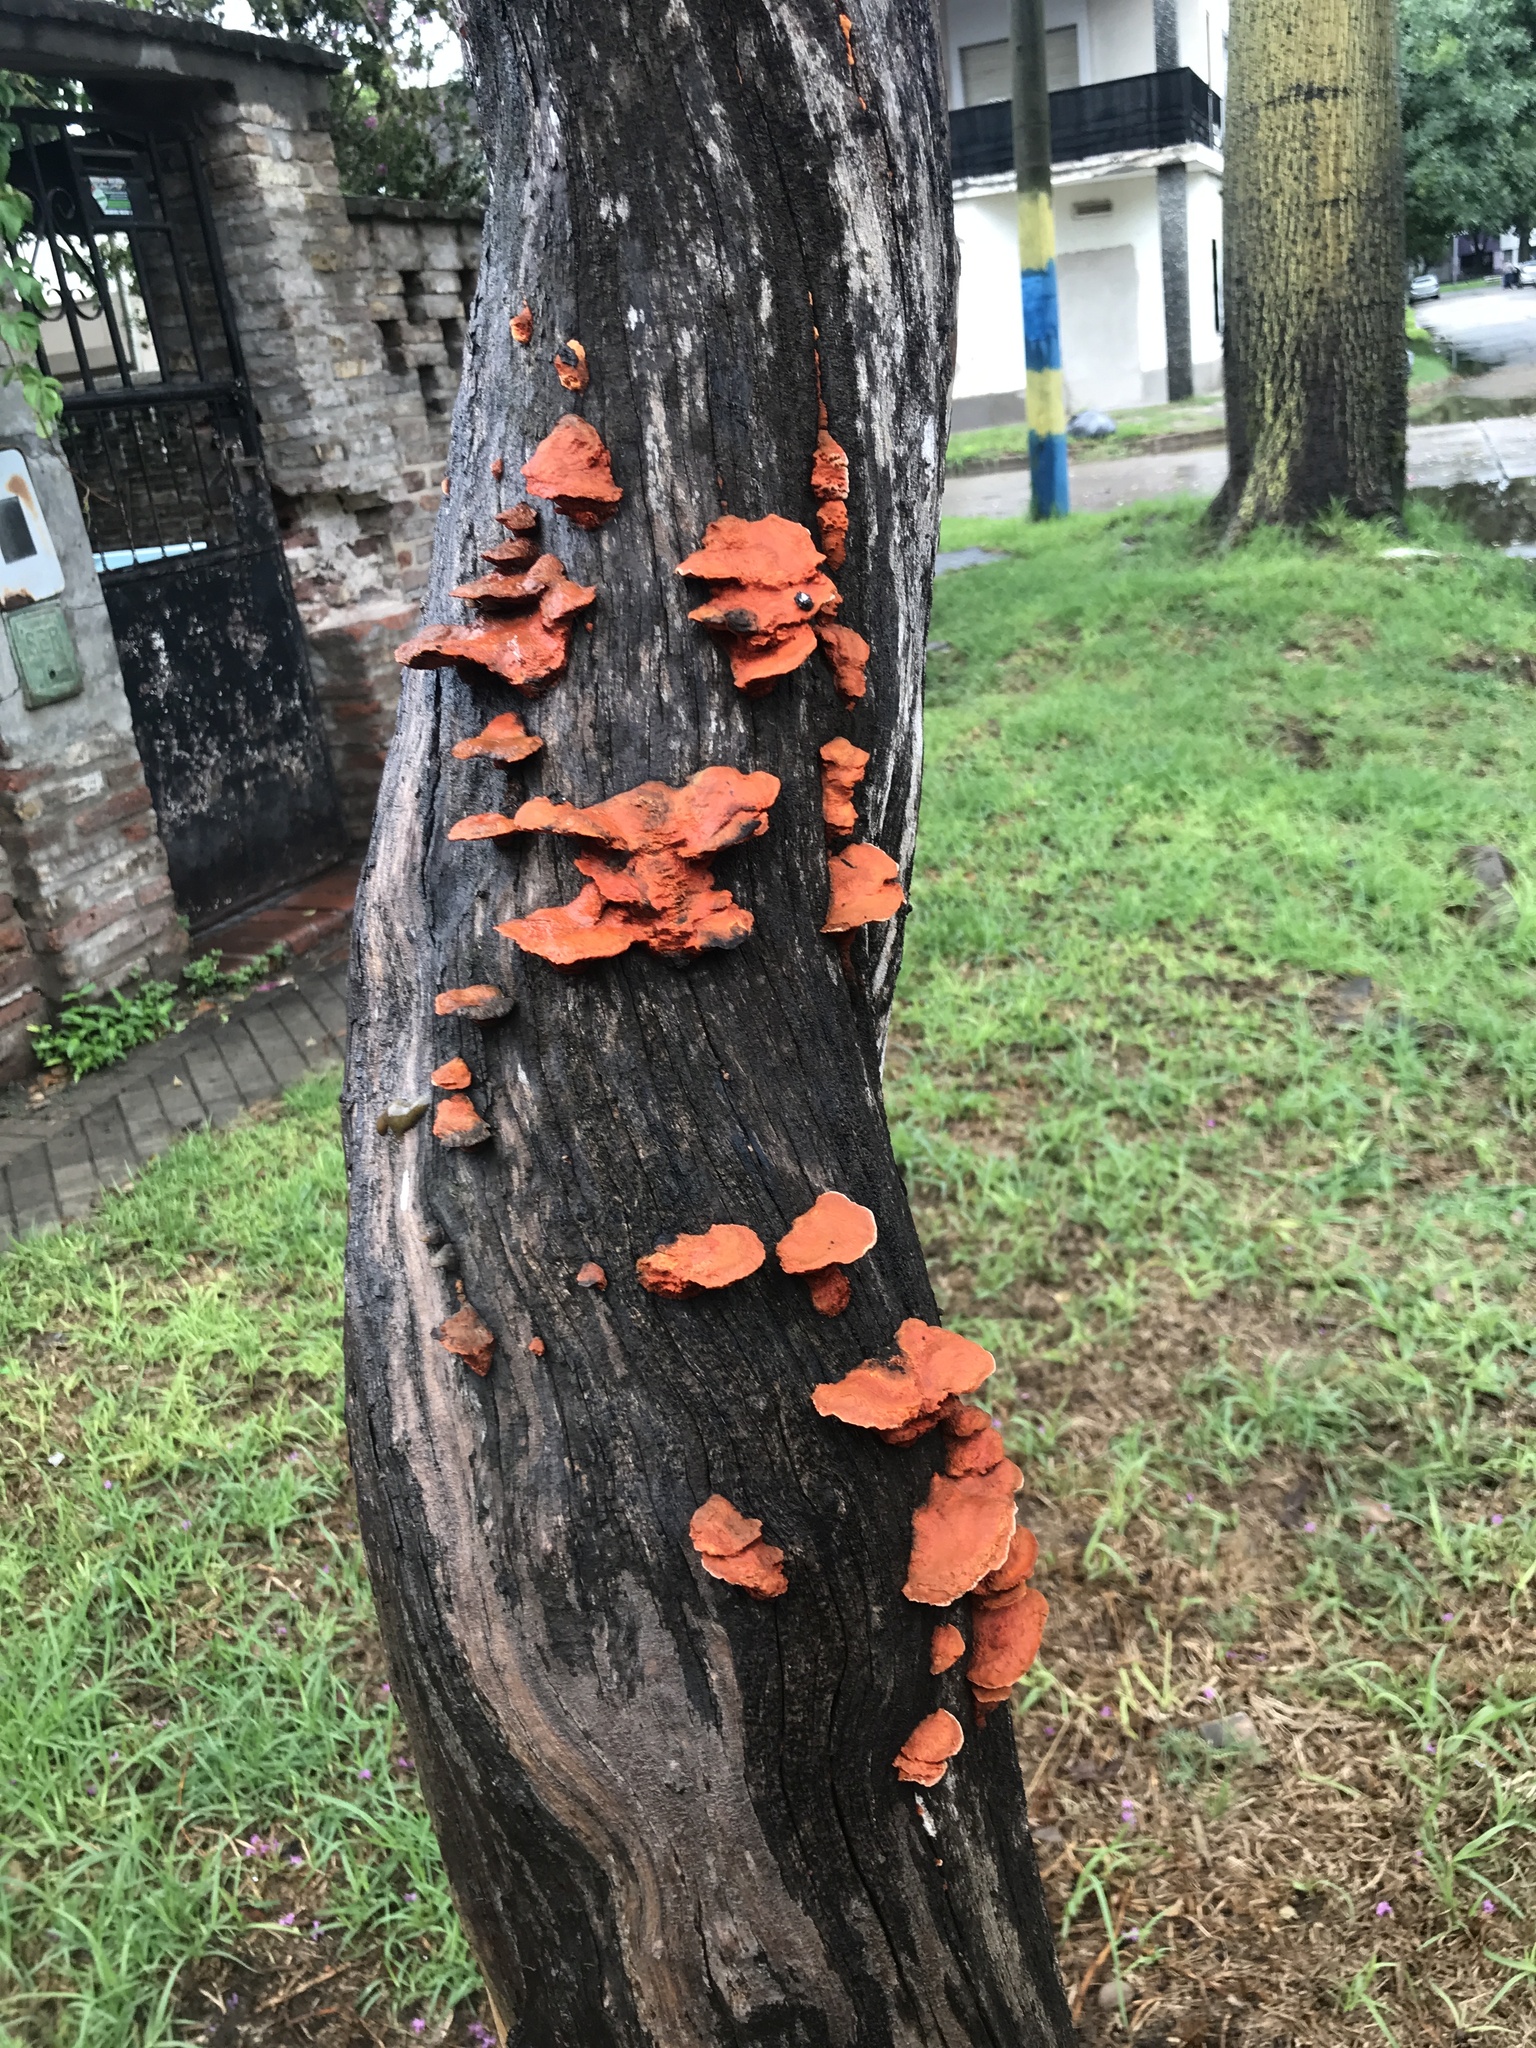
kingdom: Fungi
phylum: Basidiomycota
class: Agaricomycetes
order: Polyporales
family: Polyporaceae
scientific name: Polyporaceae
